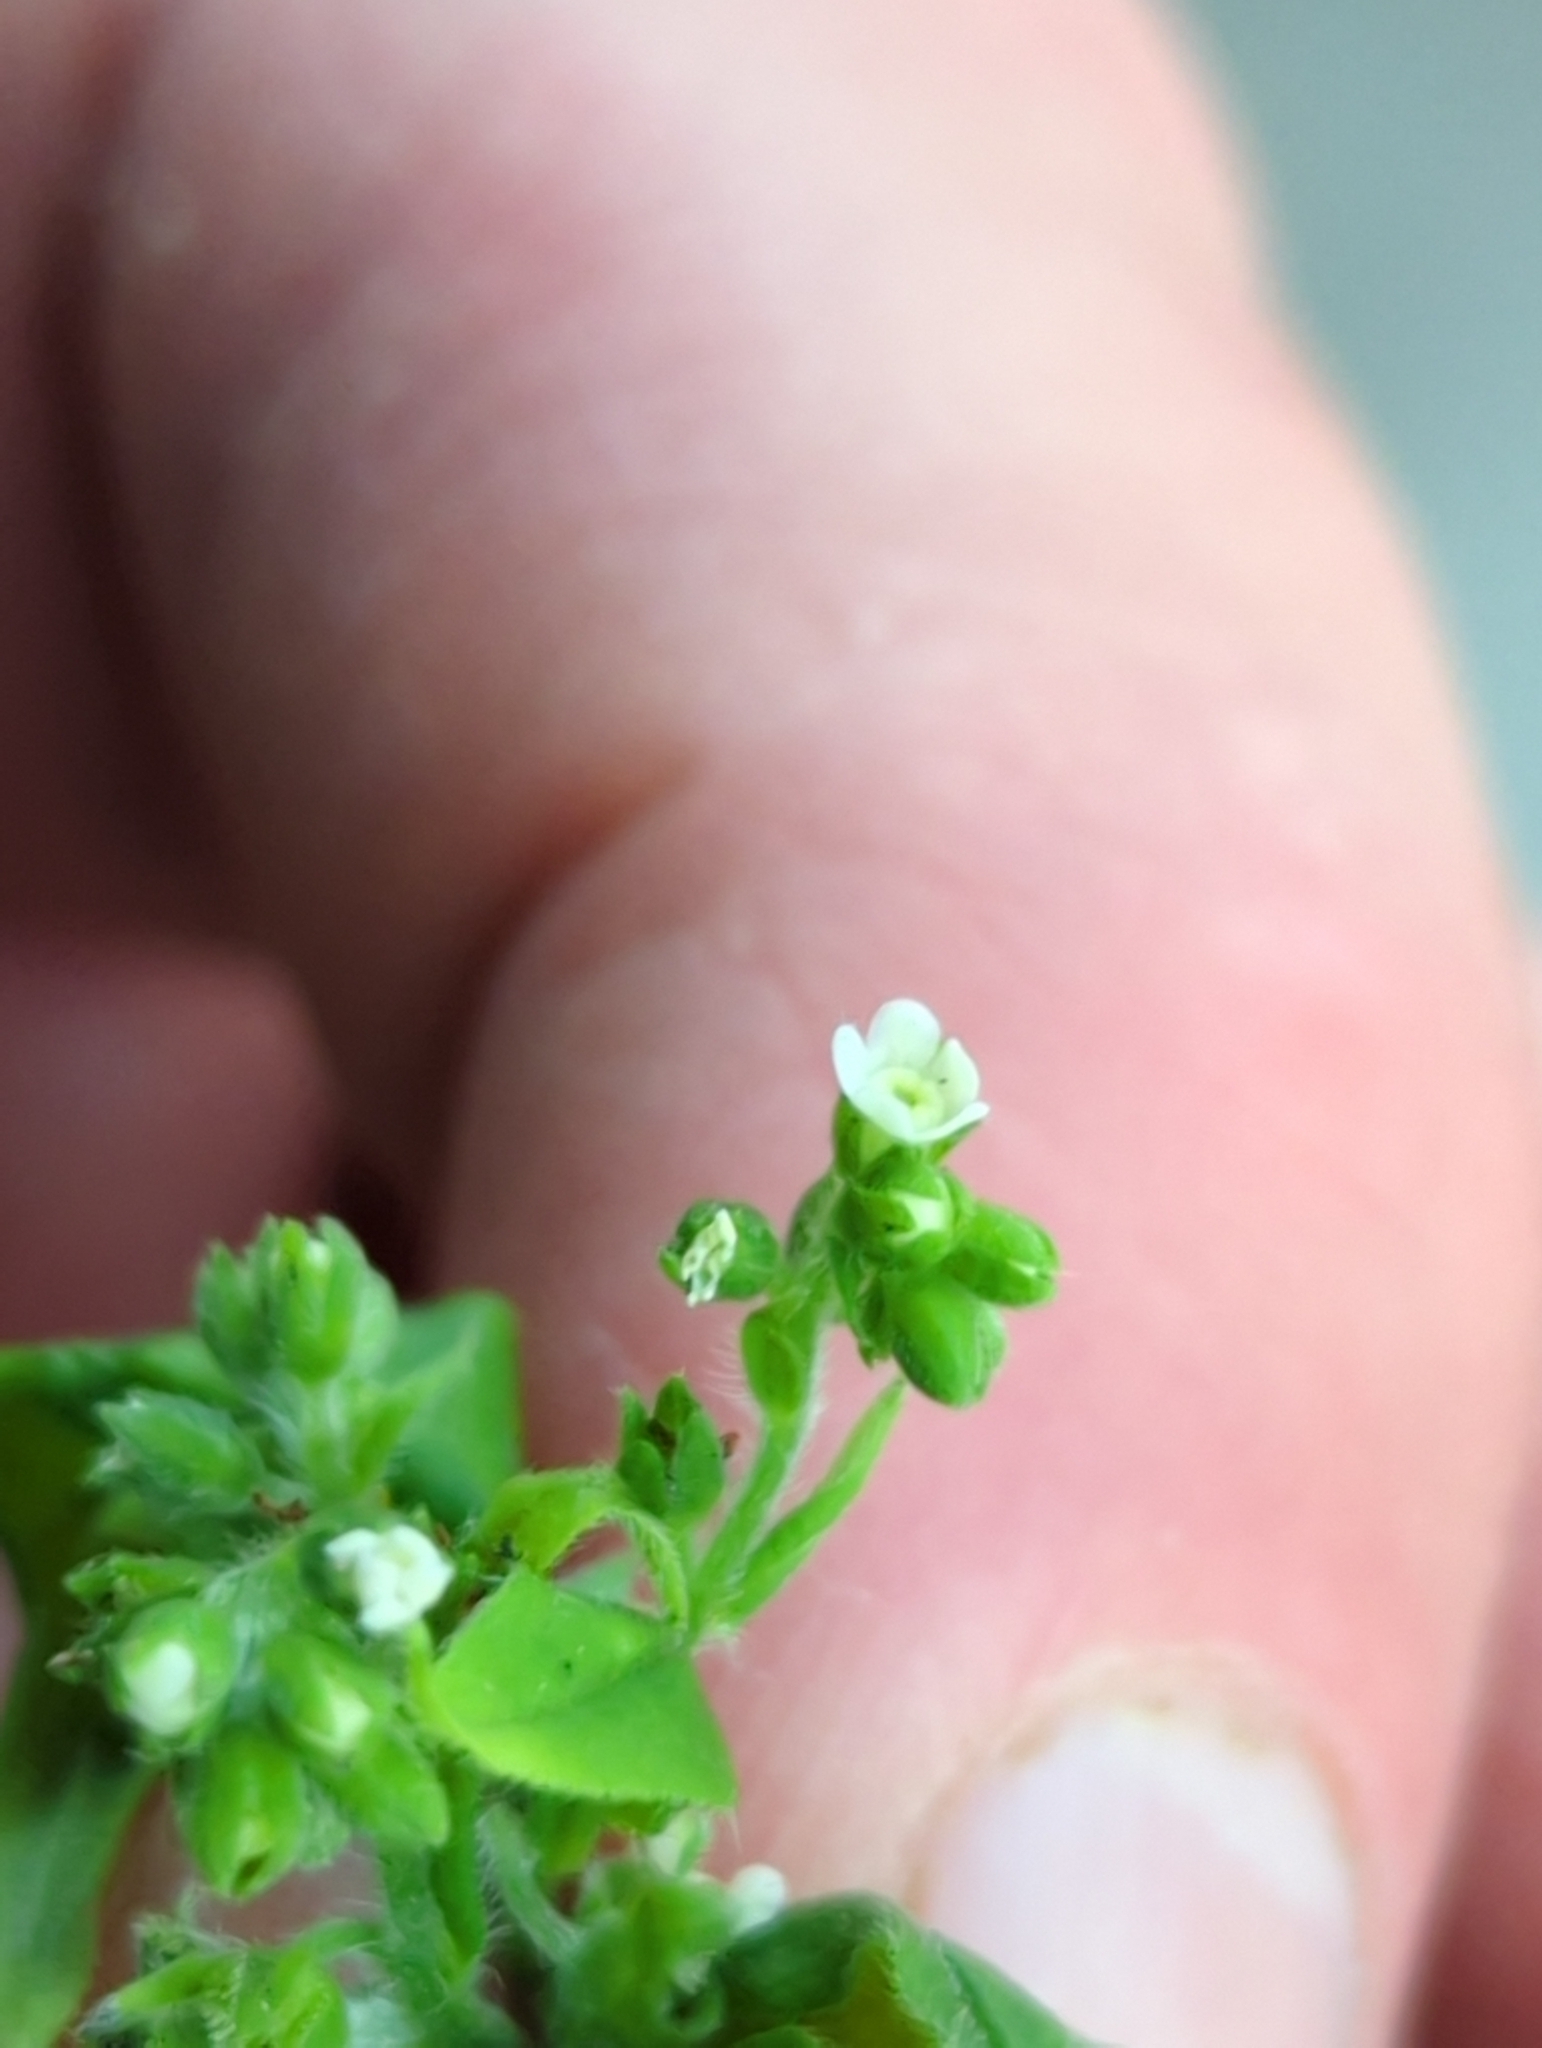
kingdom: Plantae
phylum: Tracheophyta
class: Magnoliopsida
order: Boraginales
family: Boraginaceae
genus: Hackelia
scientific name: Hackelia virginiana
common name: Beggar's-lice
